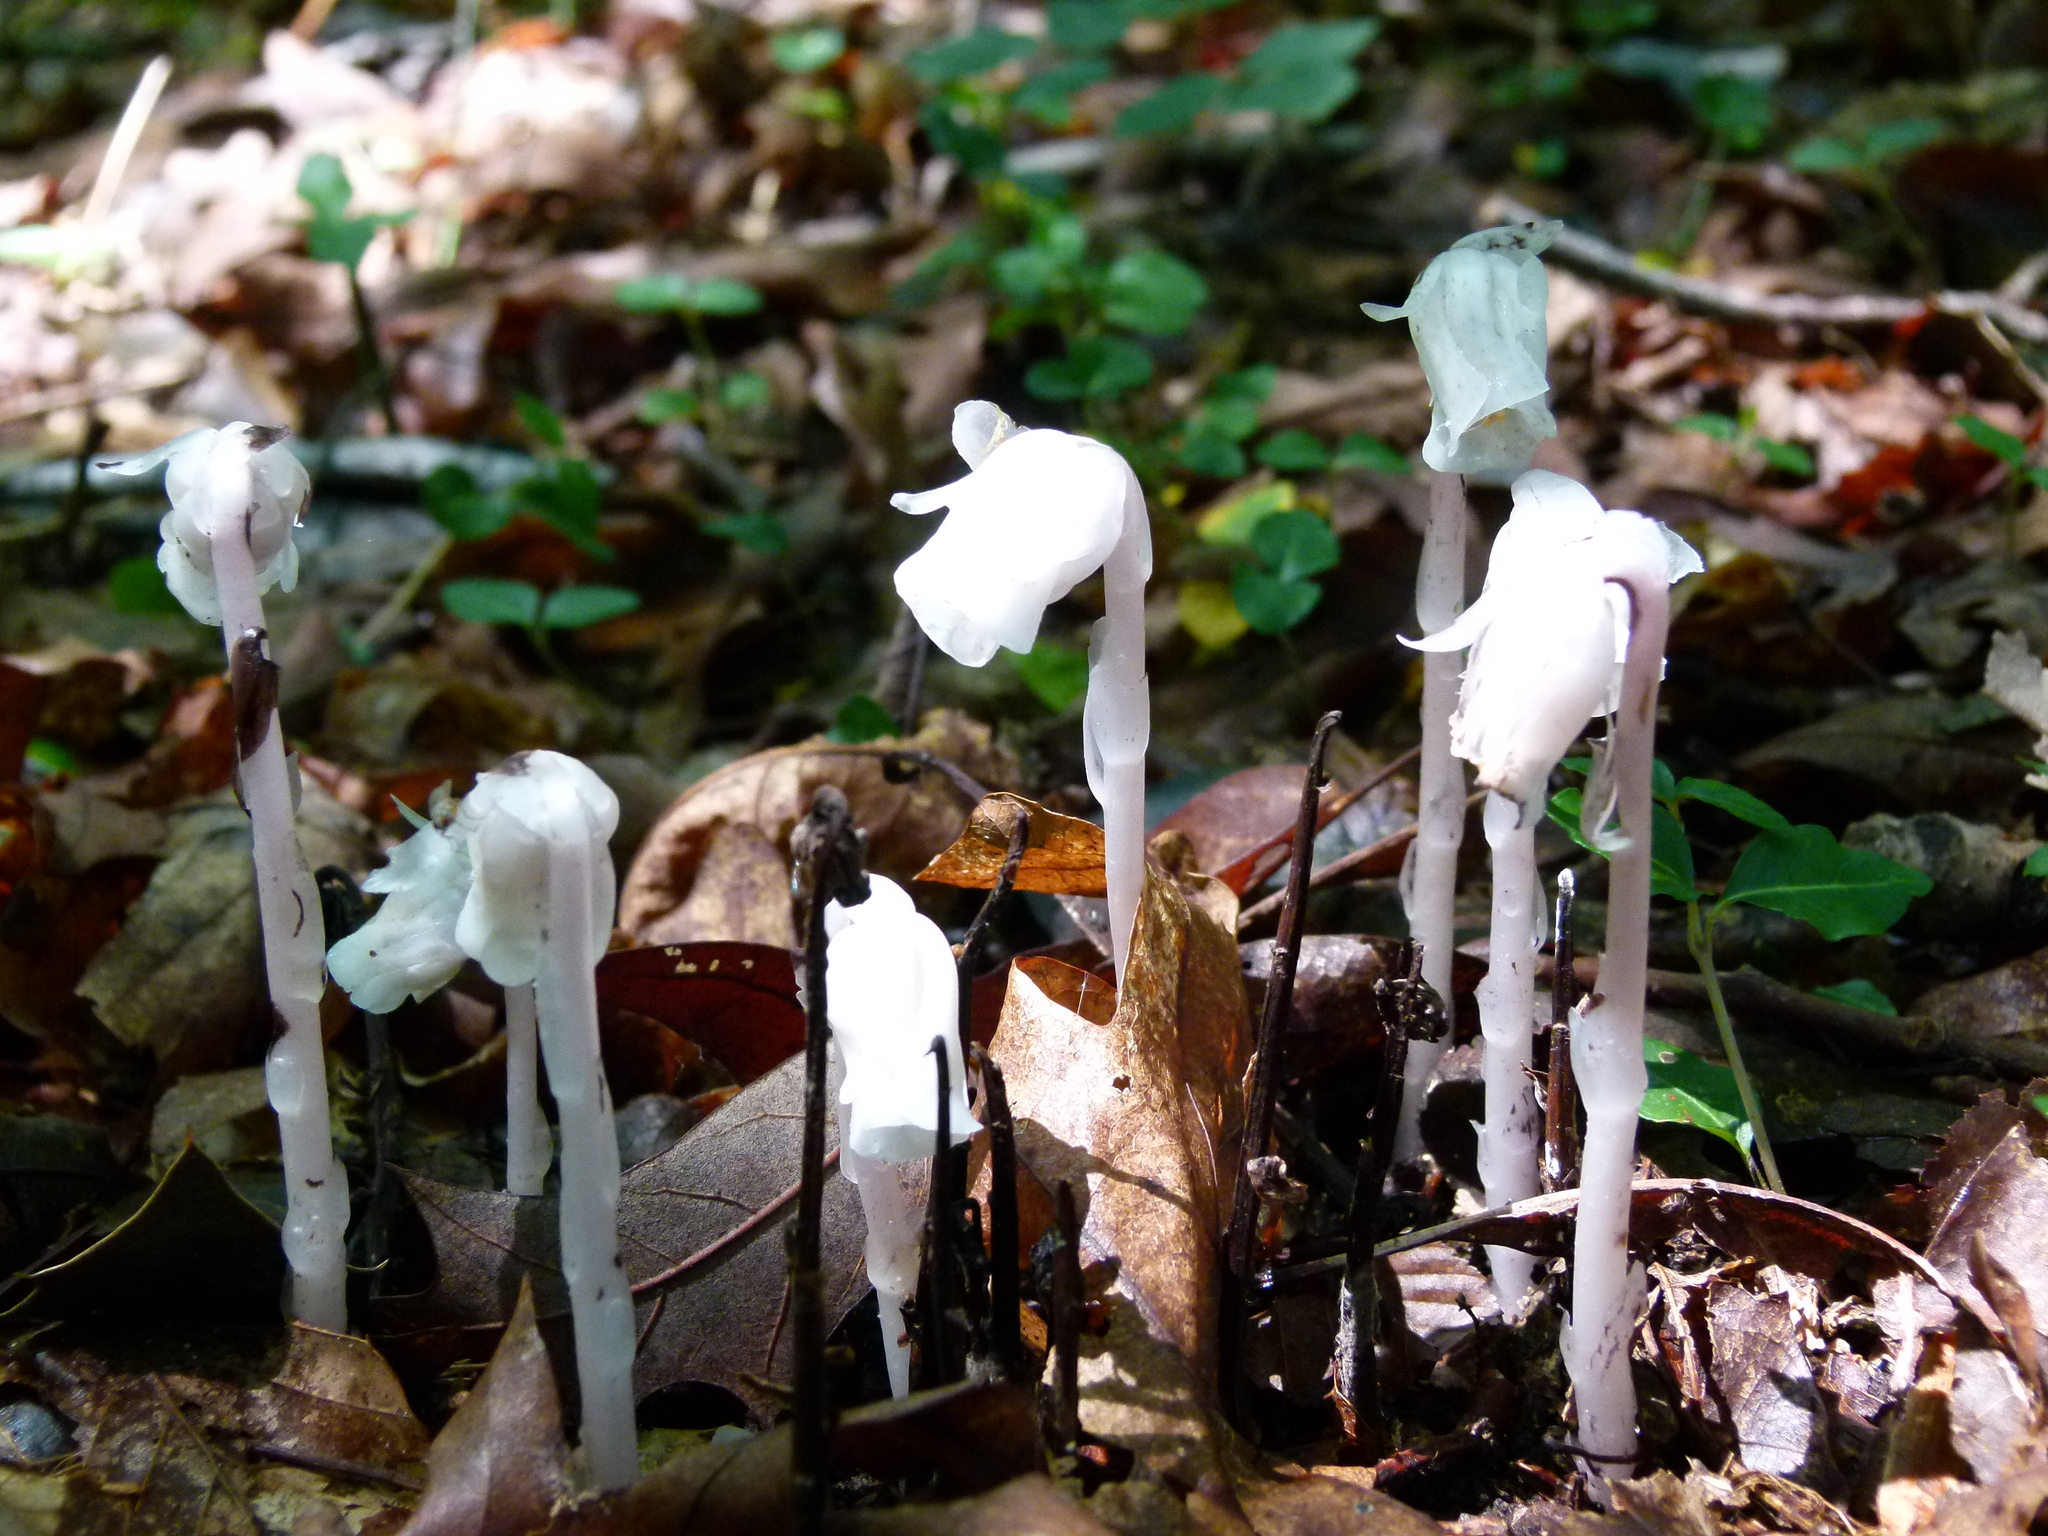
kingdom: Plantae
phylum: Tracheophyta
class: Magnoliopsida
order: Ericales
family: Ericaceae
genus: Monotropa
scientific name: Monotropa uniflora
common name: Convulsion root
